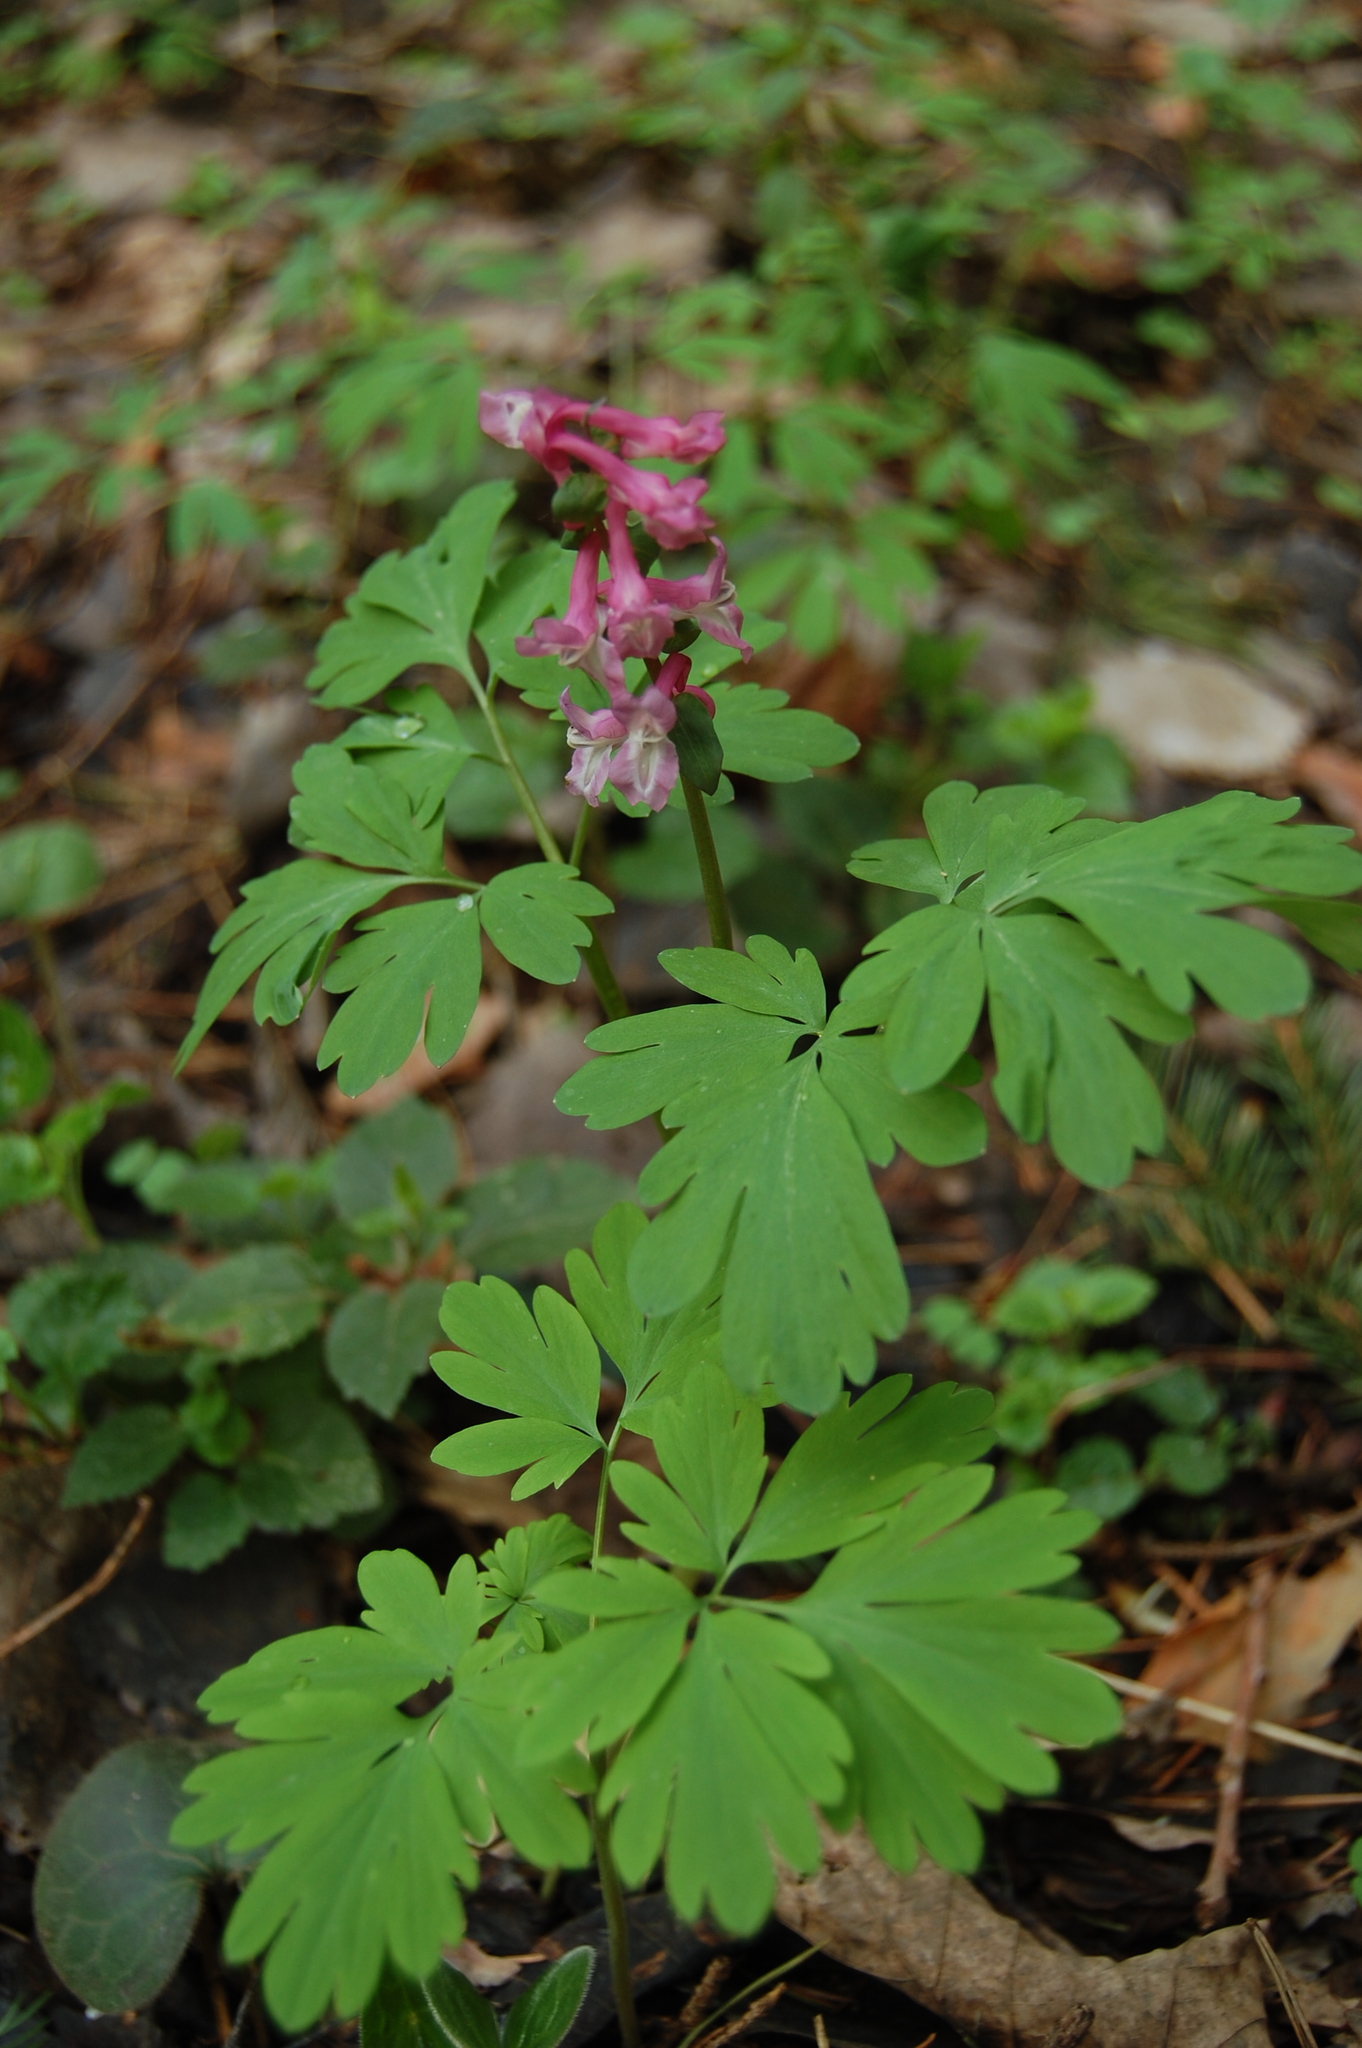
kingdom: Plantae
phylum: Tracheophyta
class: Magnoliopsida
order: Ranunculales
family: Papaveraceae
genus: Corydalis
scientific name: Corydalis cava
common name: Hollowroot
